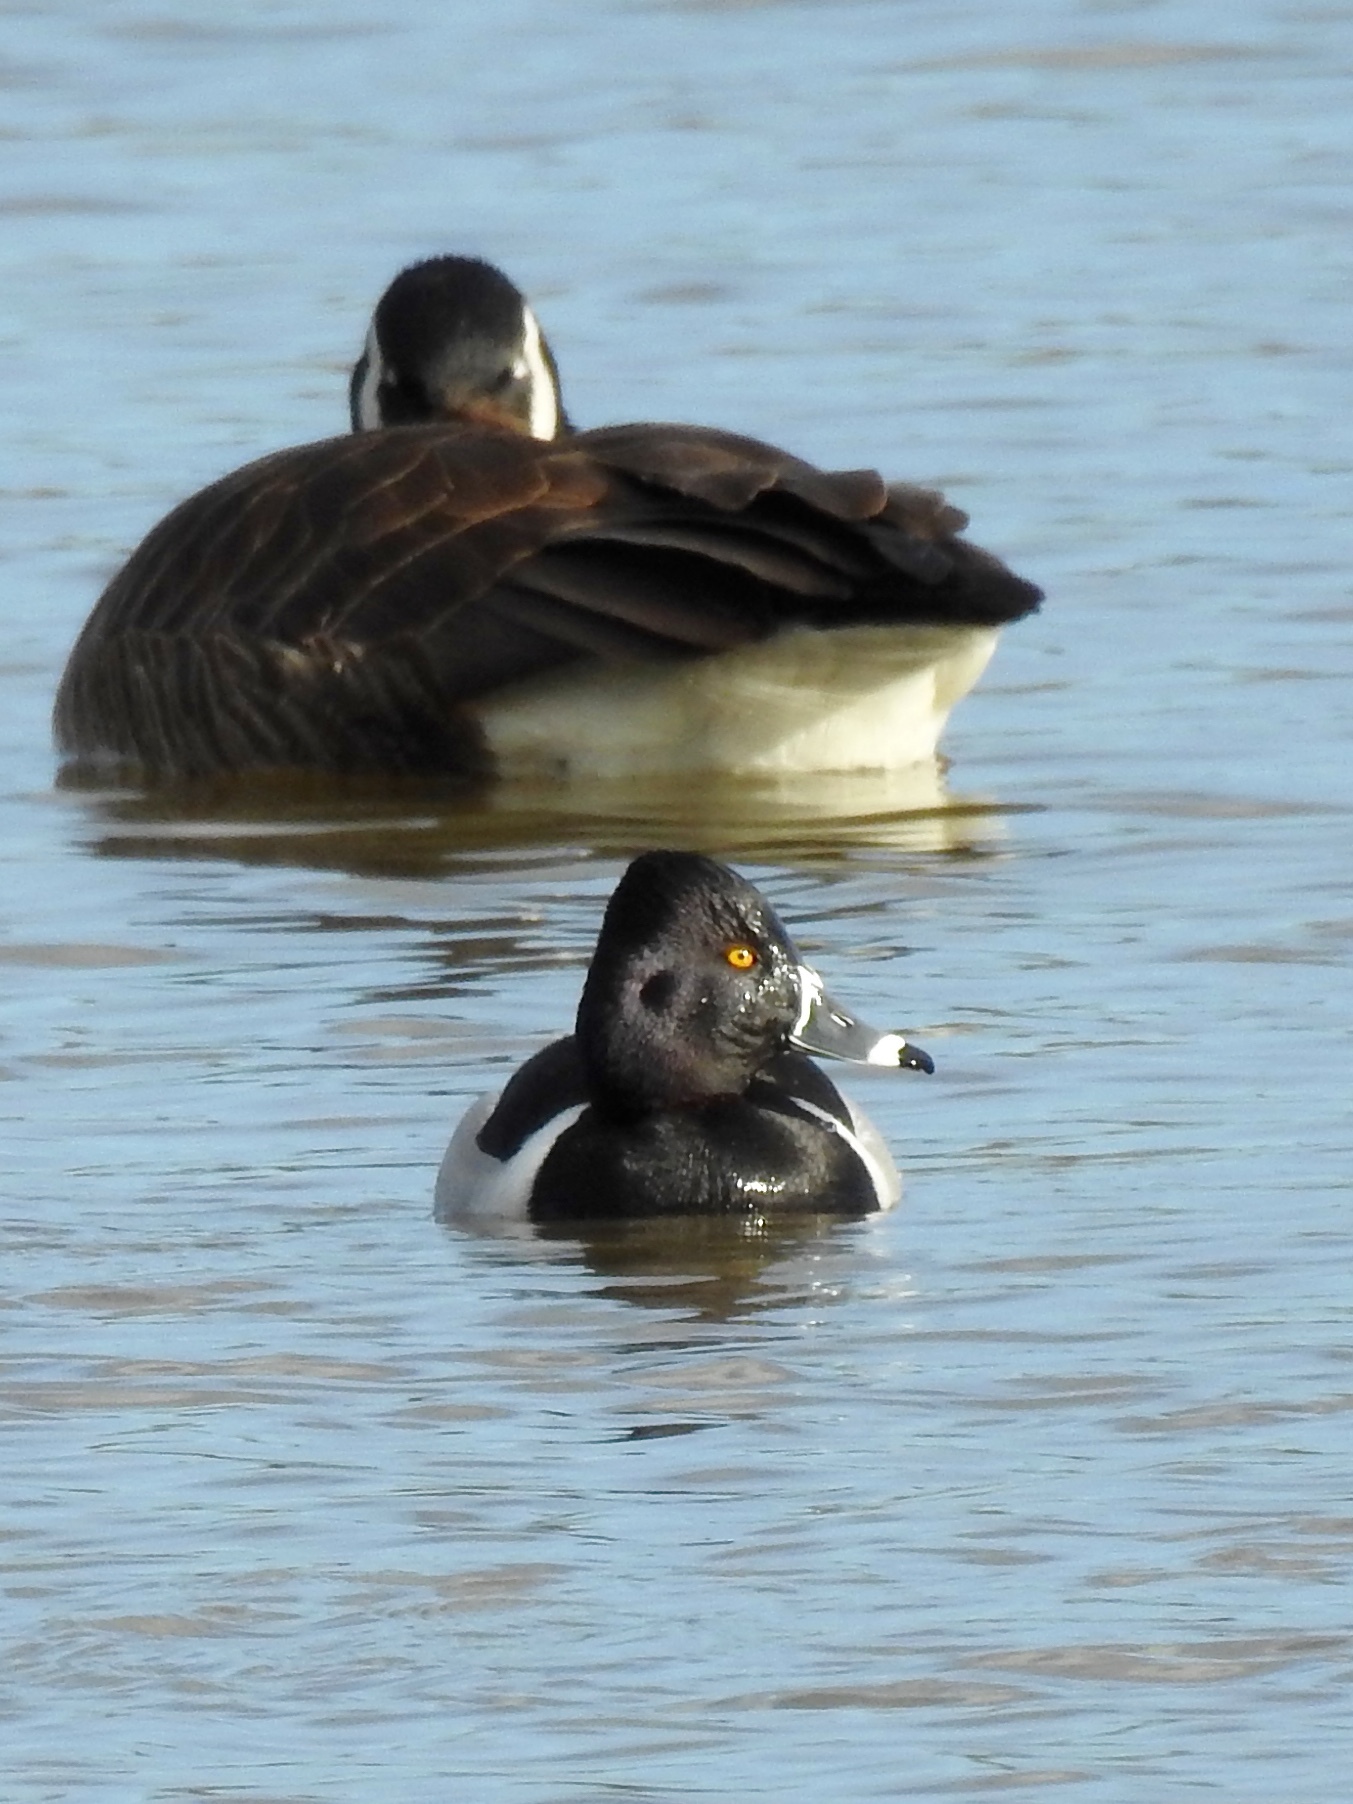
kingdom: Animalia
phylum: Chordata
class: Aves
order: Anseriformes
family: Anatidae
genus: Aythya
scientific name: Aythya collaris
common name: Ring-necked duck
